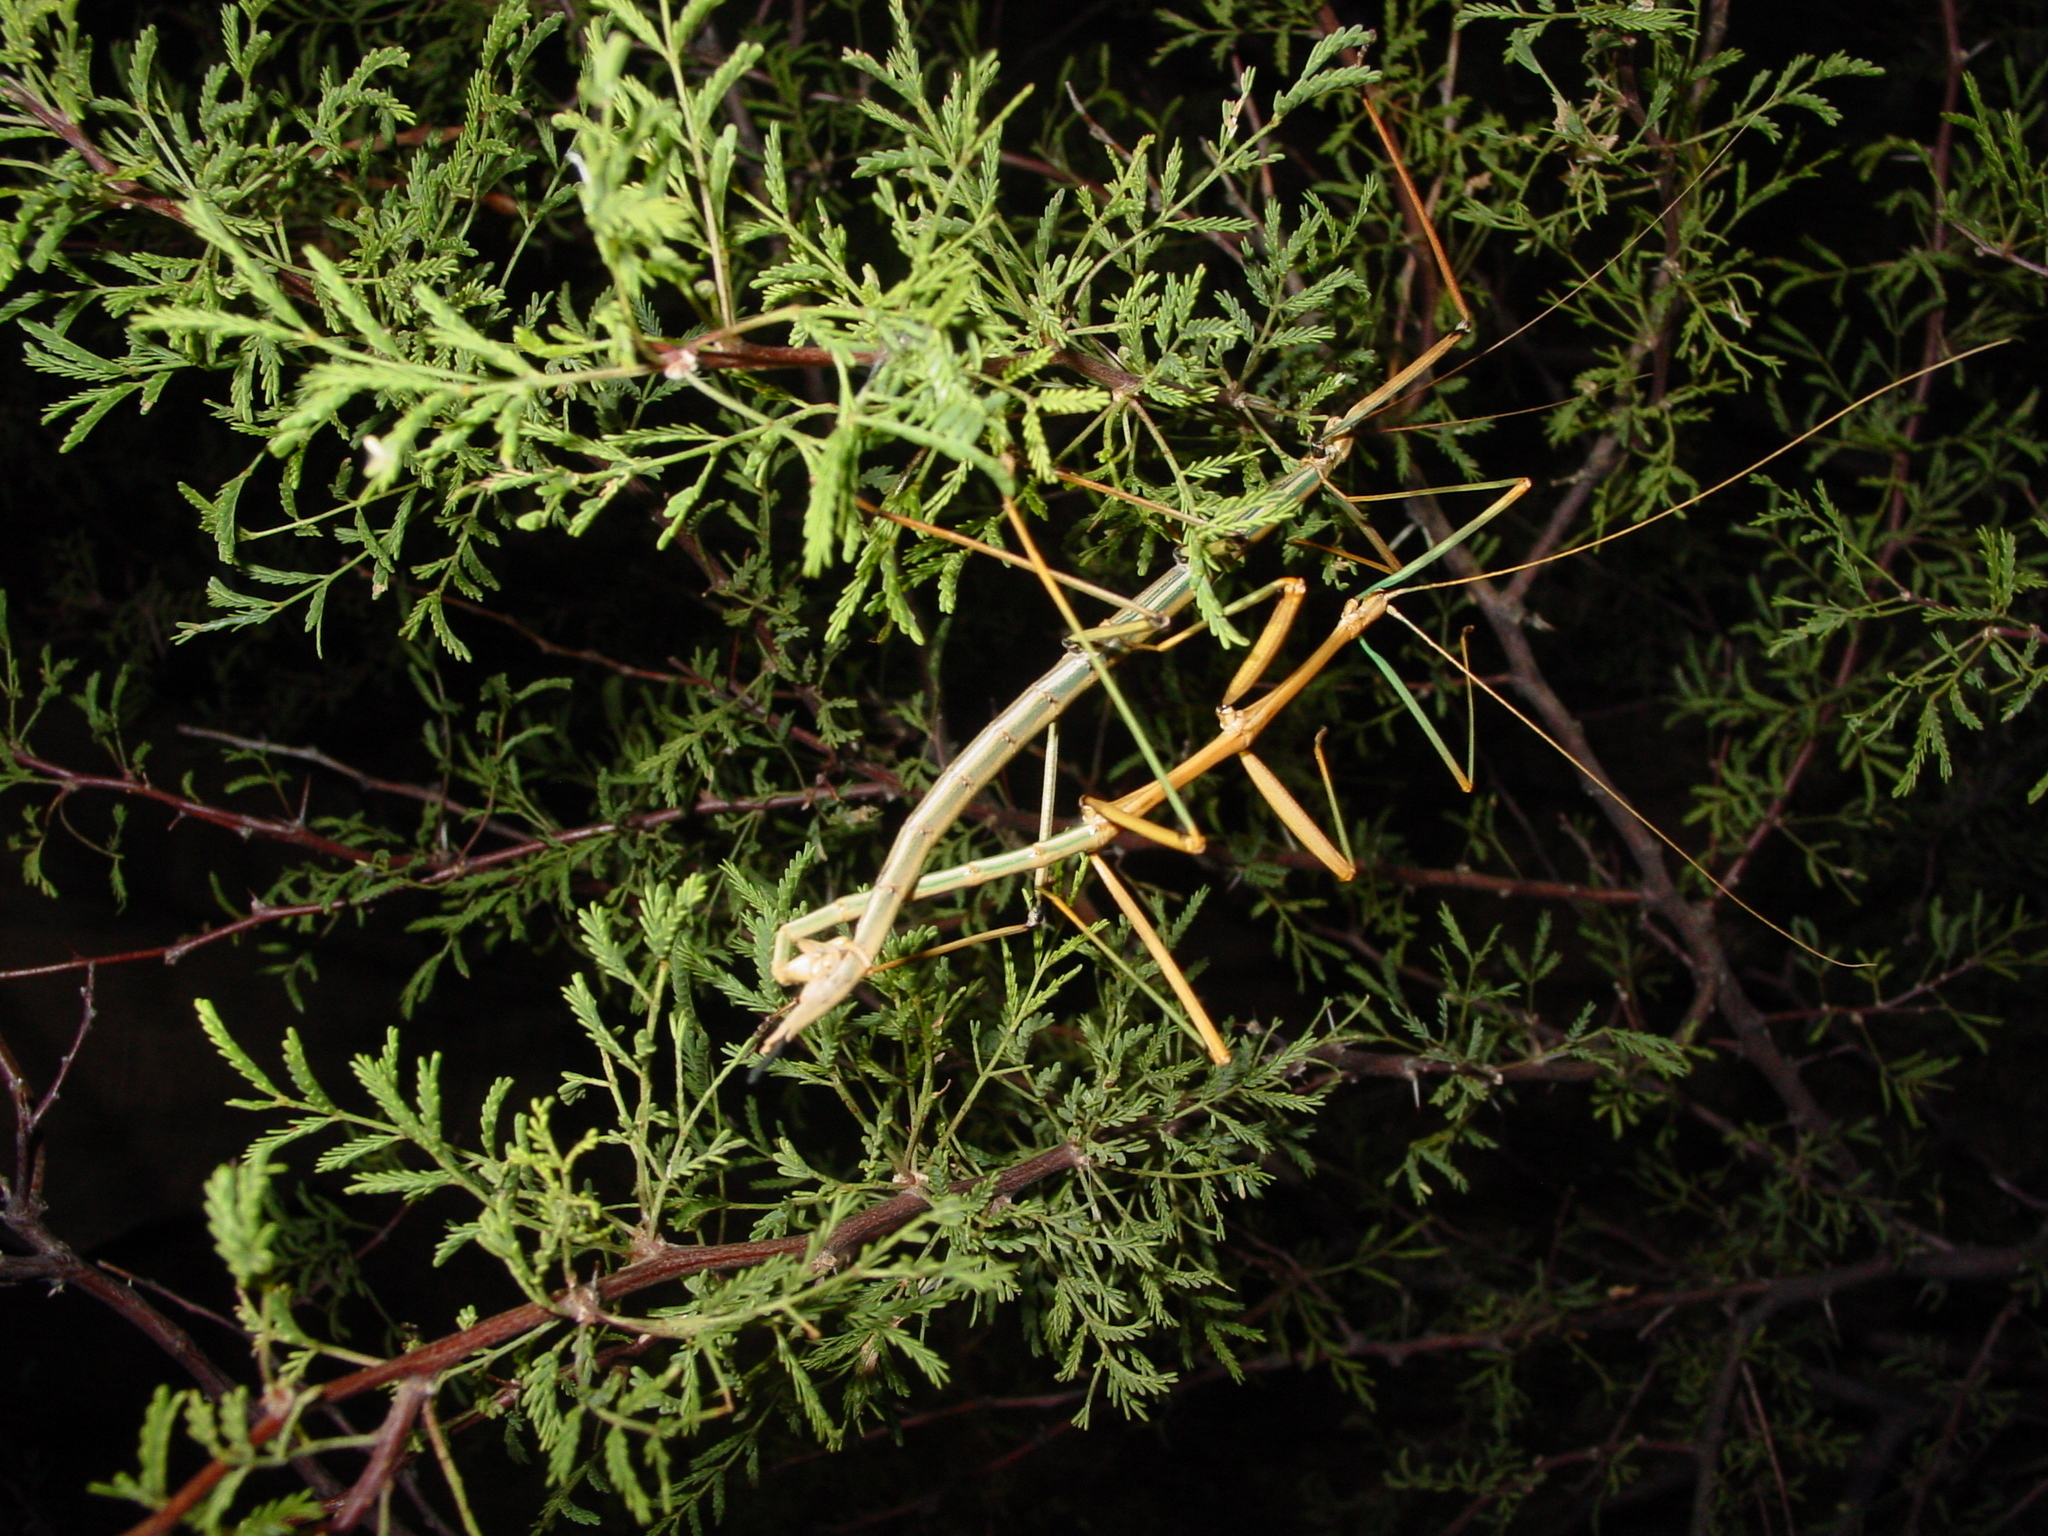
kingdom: Animalia
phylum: Arthropoda
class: Insecta
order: Phasmida
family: Diapheromeridae
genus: Diapheromera
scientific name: Diapheromera velii
